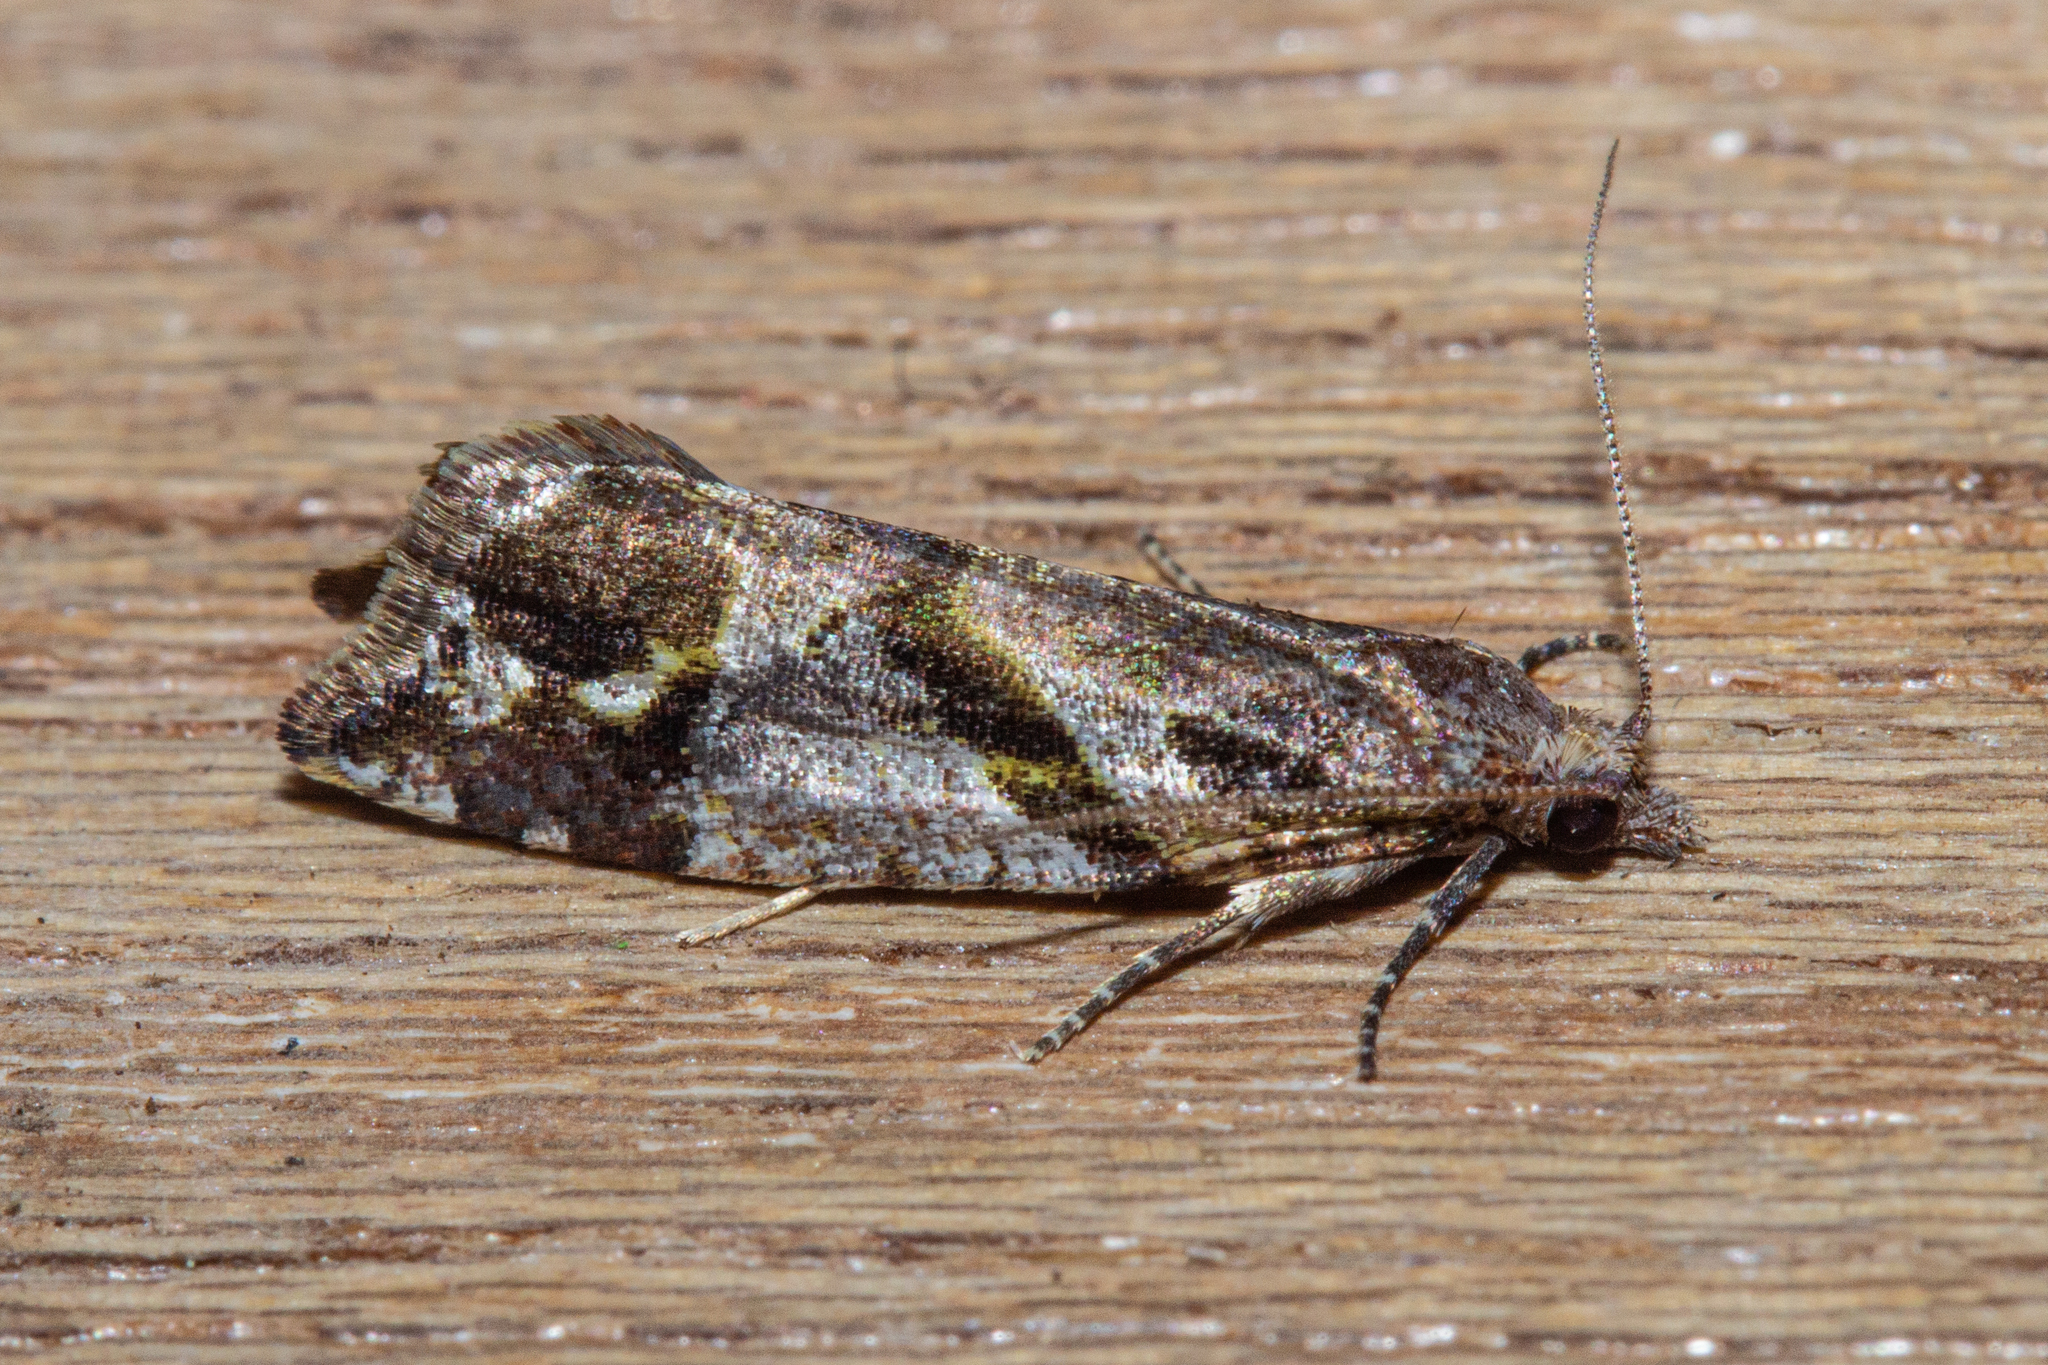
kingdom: Animalia
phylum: Arthropoda
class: Insecta
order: Lepidoptera
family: Tortricidae
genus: Pyrgotis
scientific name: Pyrgotis plagiatana
